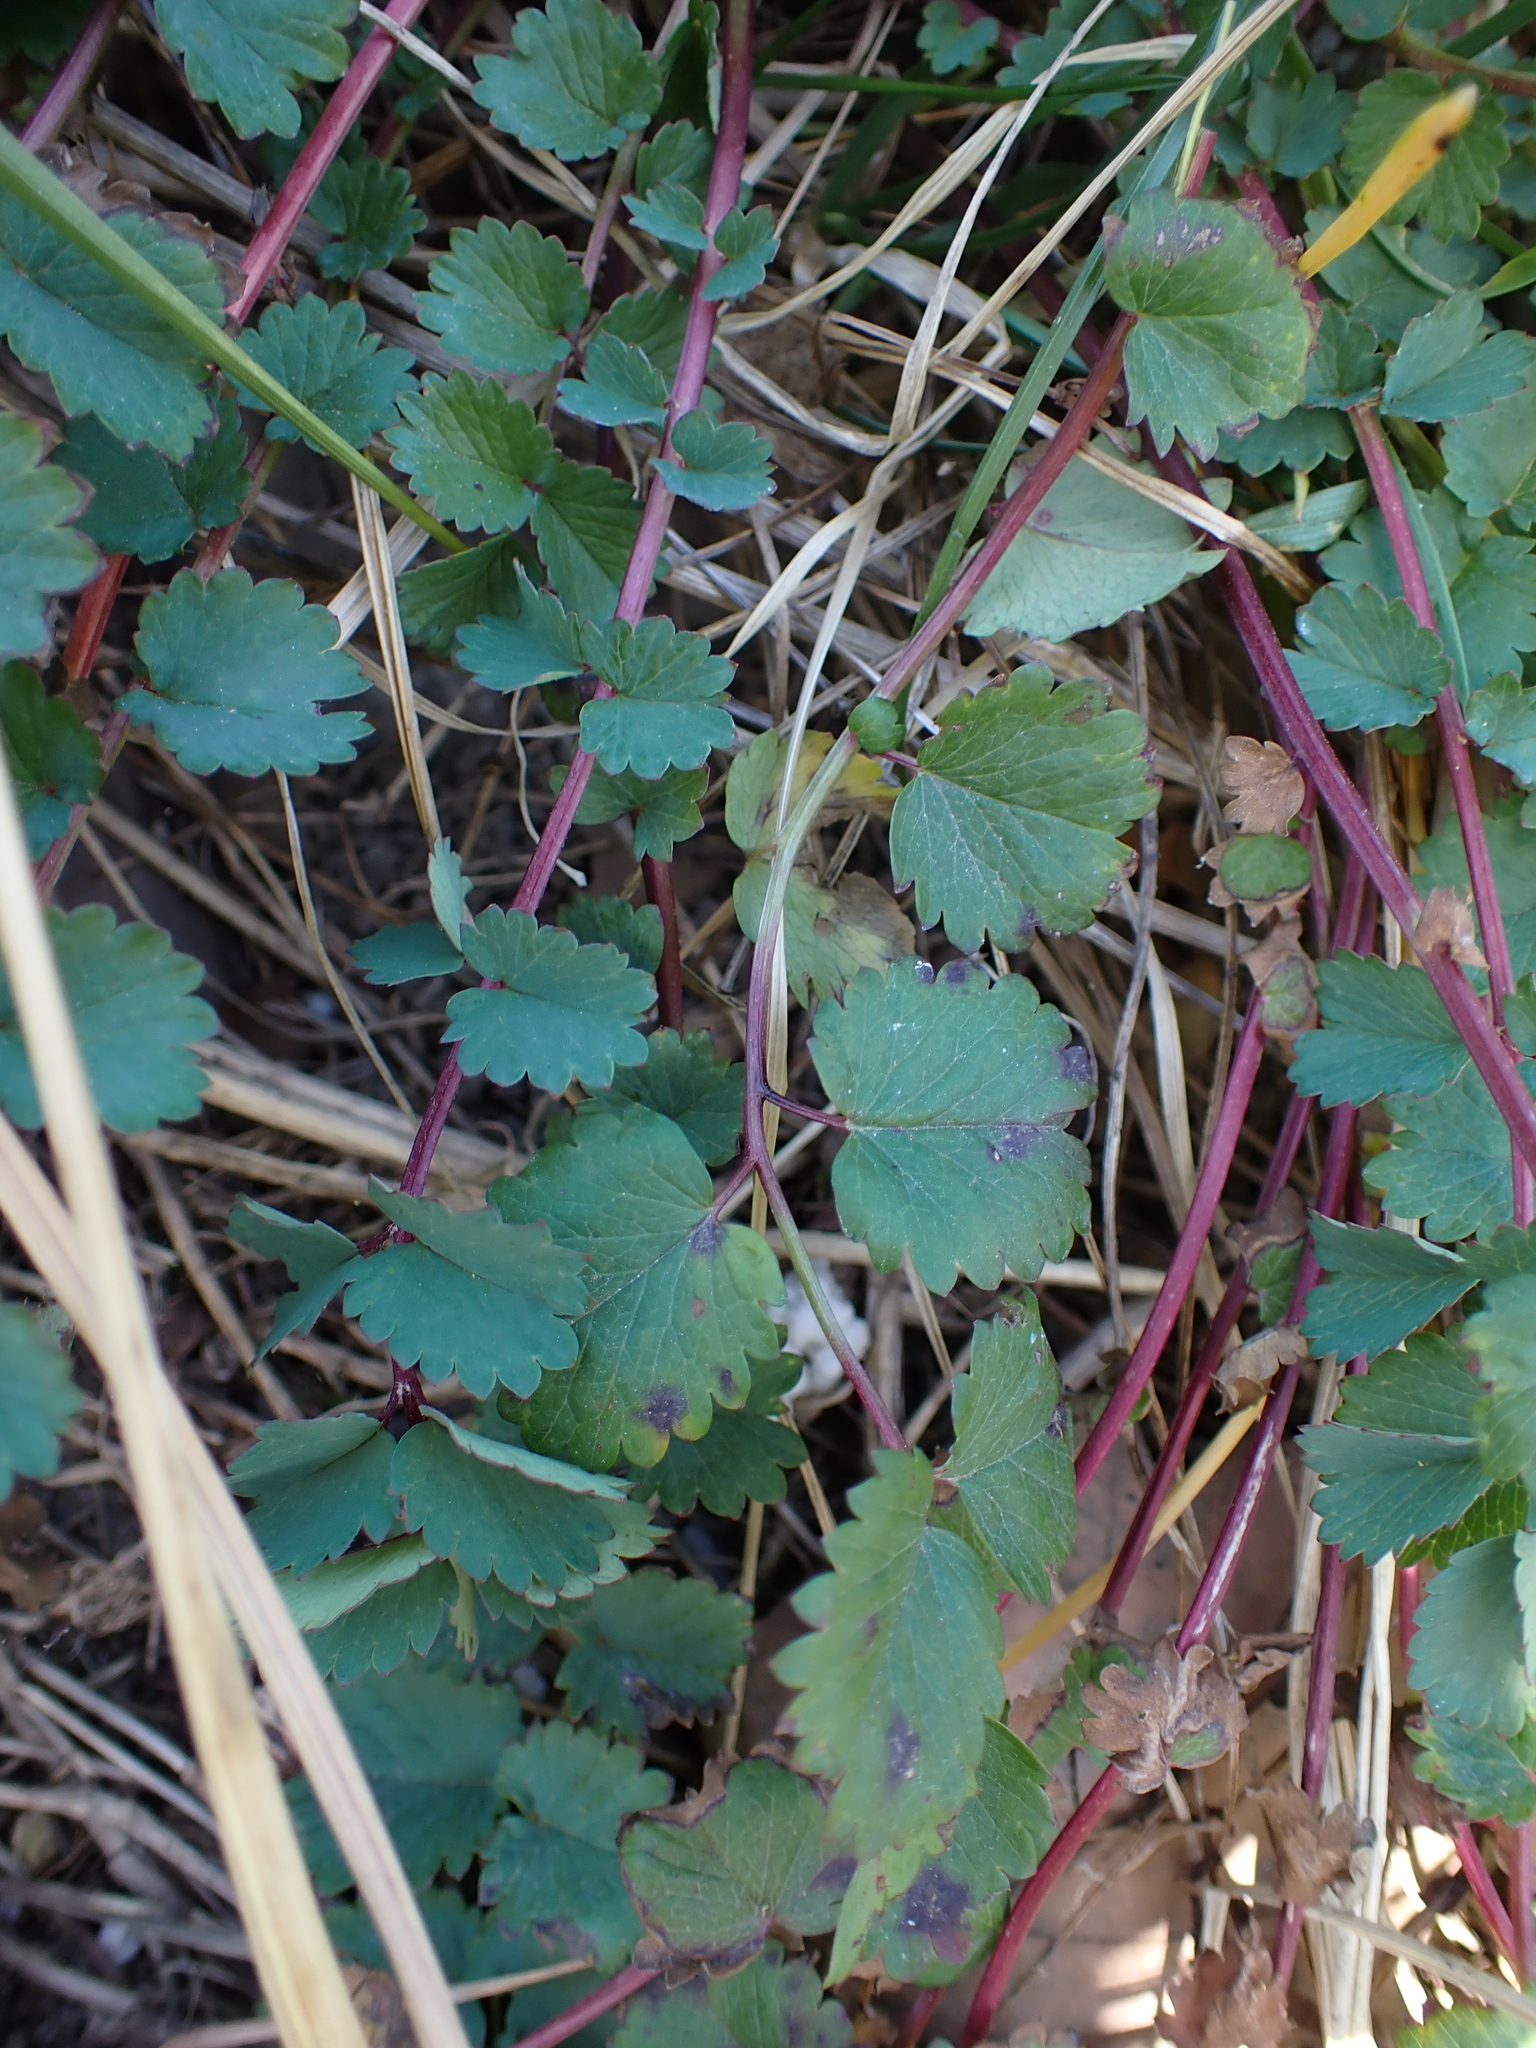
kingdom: Plantae
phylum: Tracheophyta
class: Magnoliopsida
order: Rosales
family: Rosaceae
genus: Poterium
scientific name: Poterium sanguisorba
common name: Salad burnet
